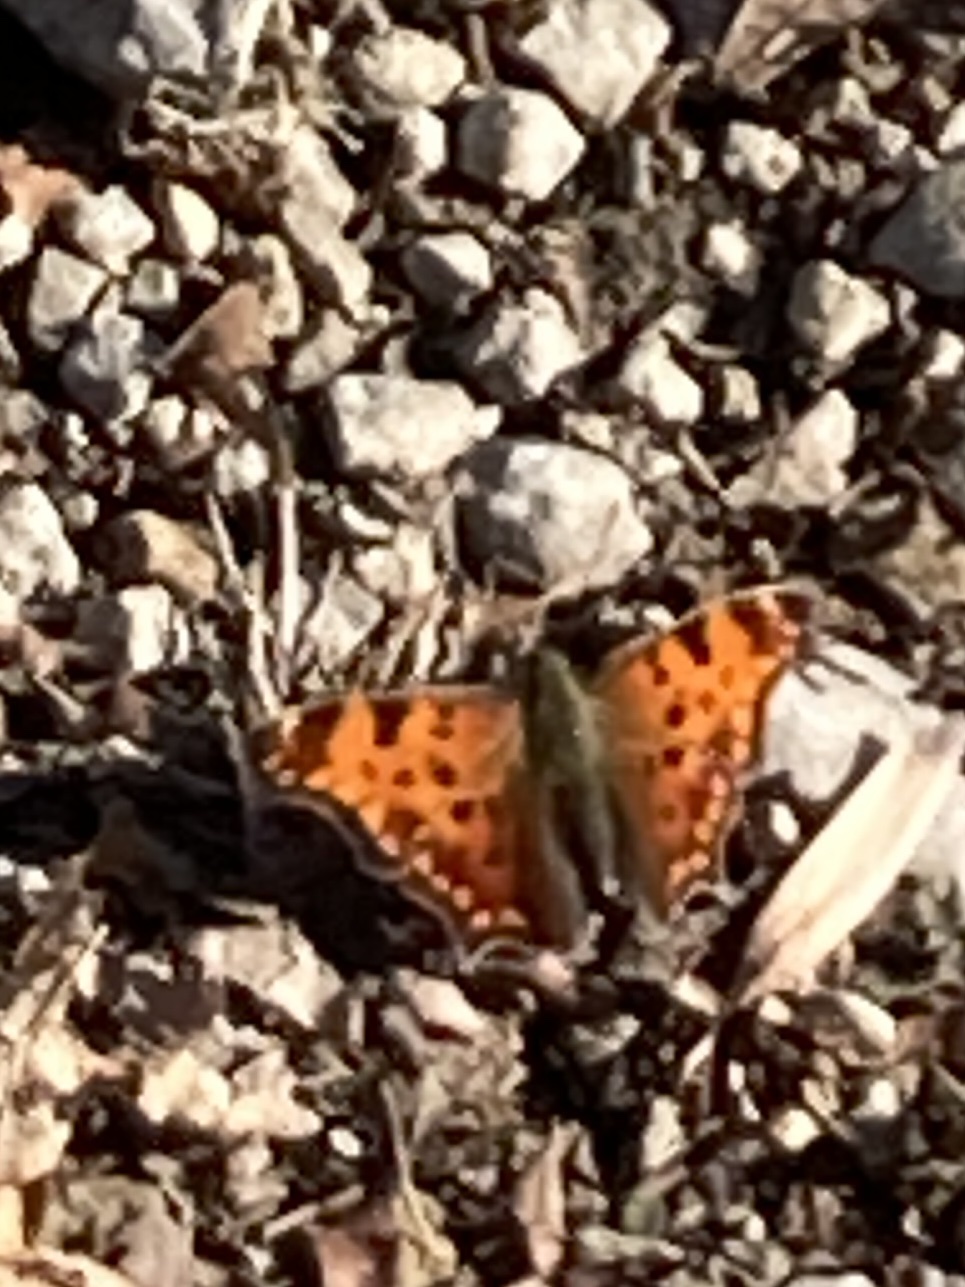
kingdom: Animalia
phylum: Arthropoda
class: Insecta
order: Lepidoptera
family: Nymphalidae
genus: Polygonia
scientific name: Polygonia comma
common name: Eastern comma
